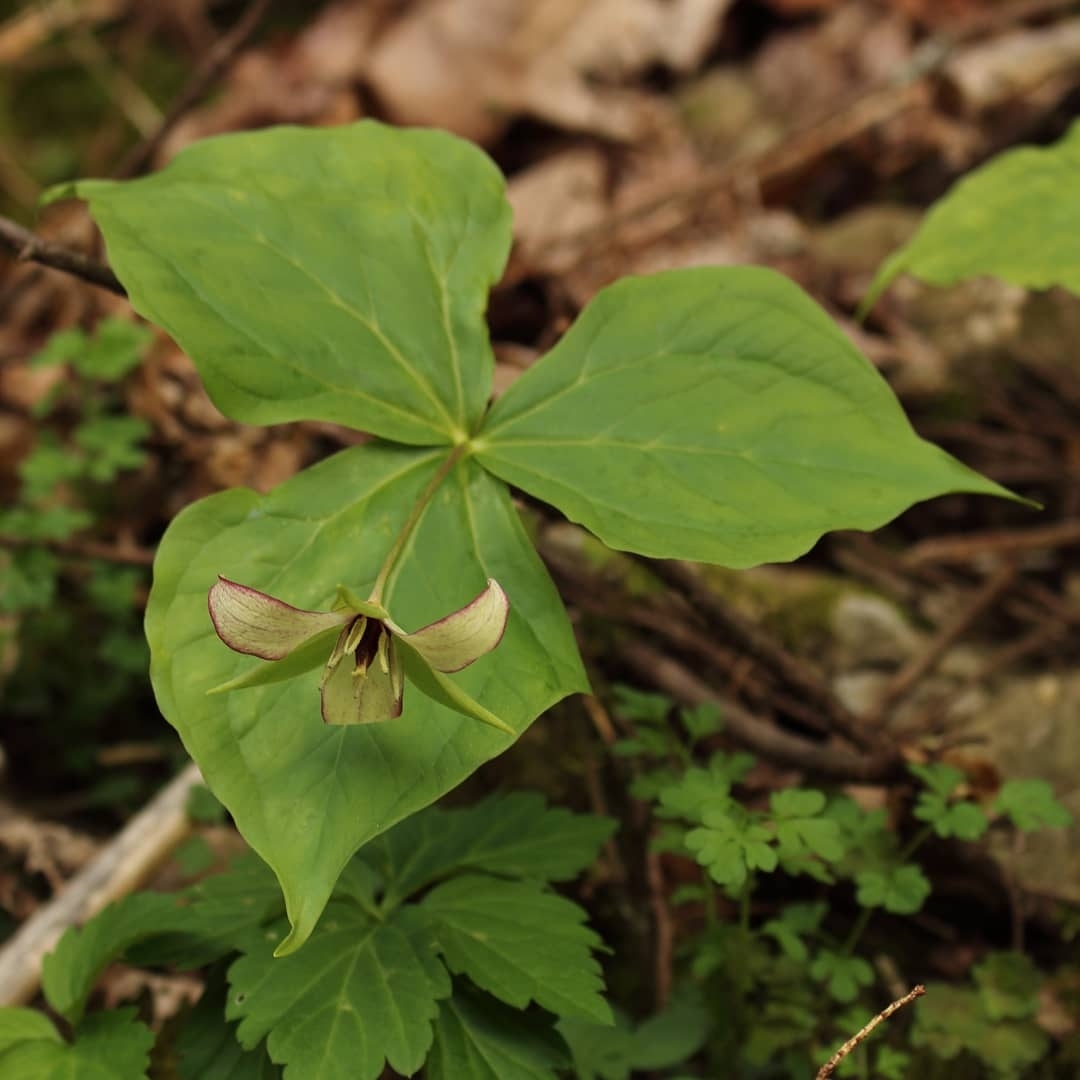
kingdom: Plantae
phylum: Tracheophyta
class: Liliopsida
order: Liliales
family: Melanthiaceae
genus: Trillium
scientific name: Trillium erectum
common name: Purple trillium
